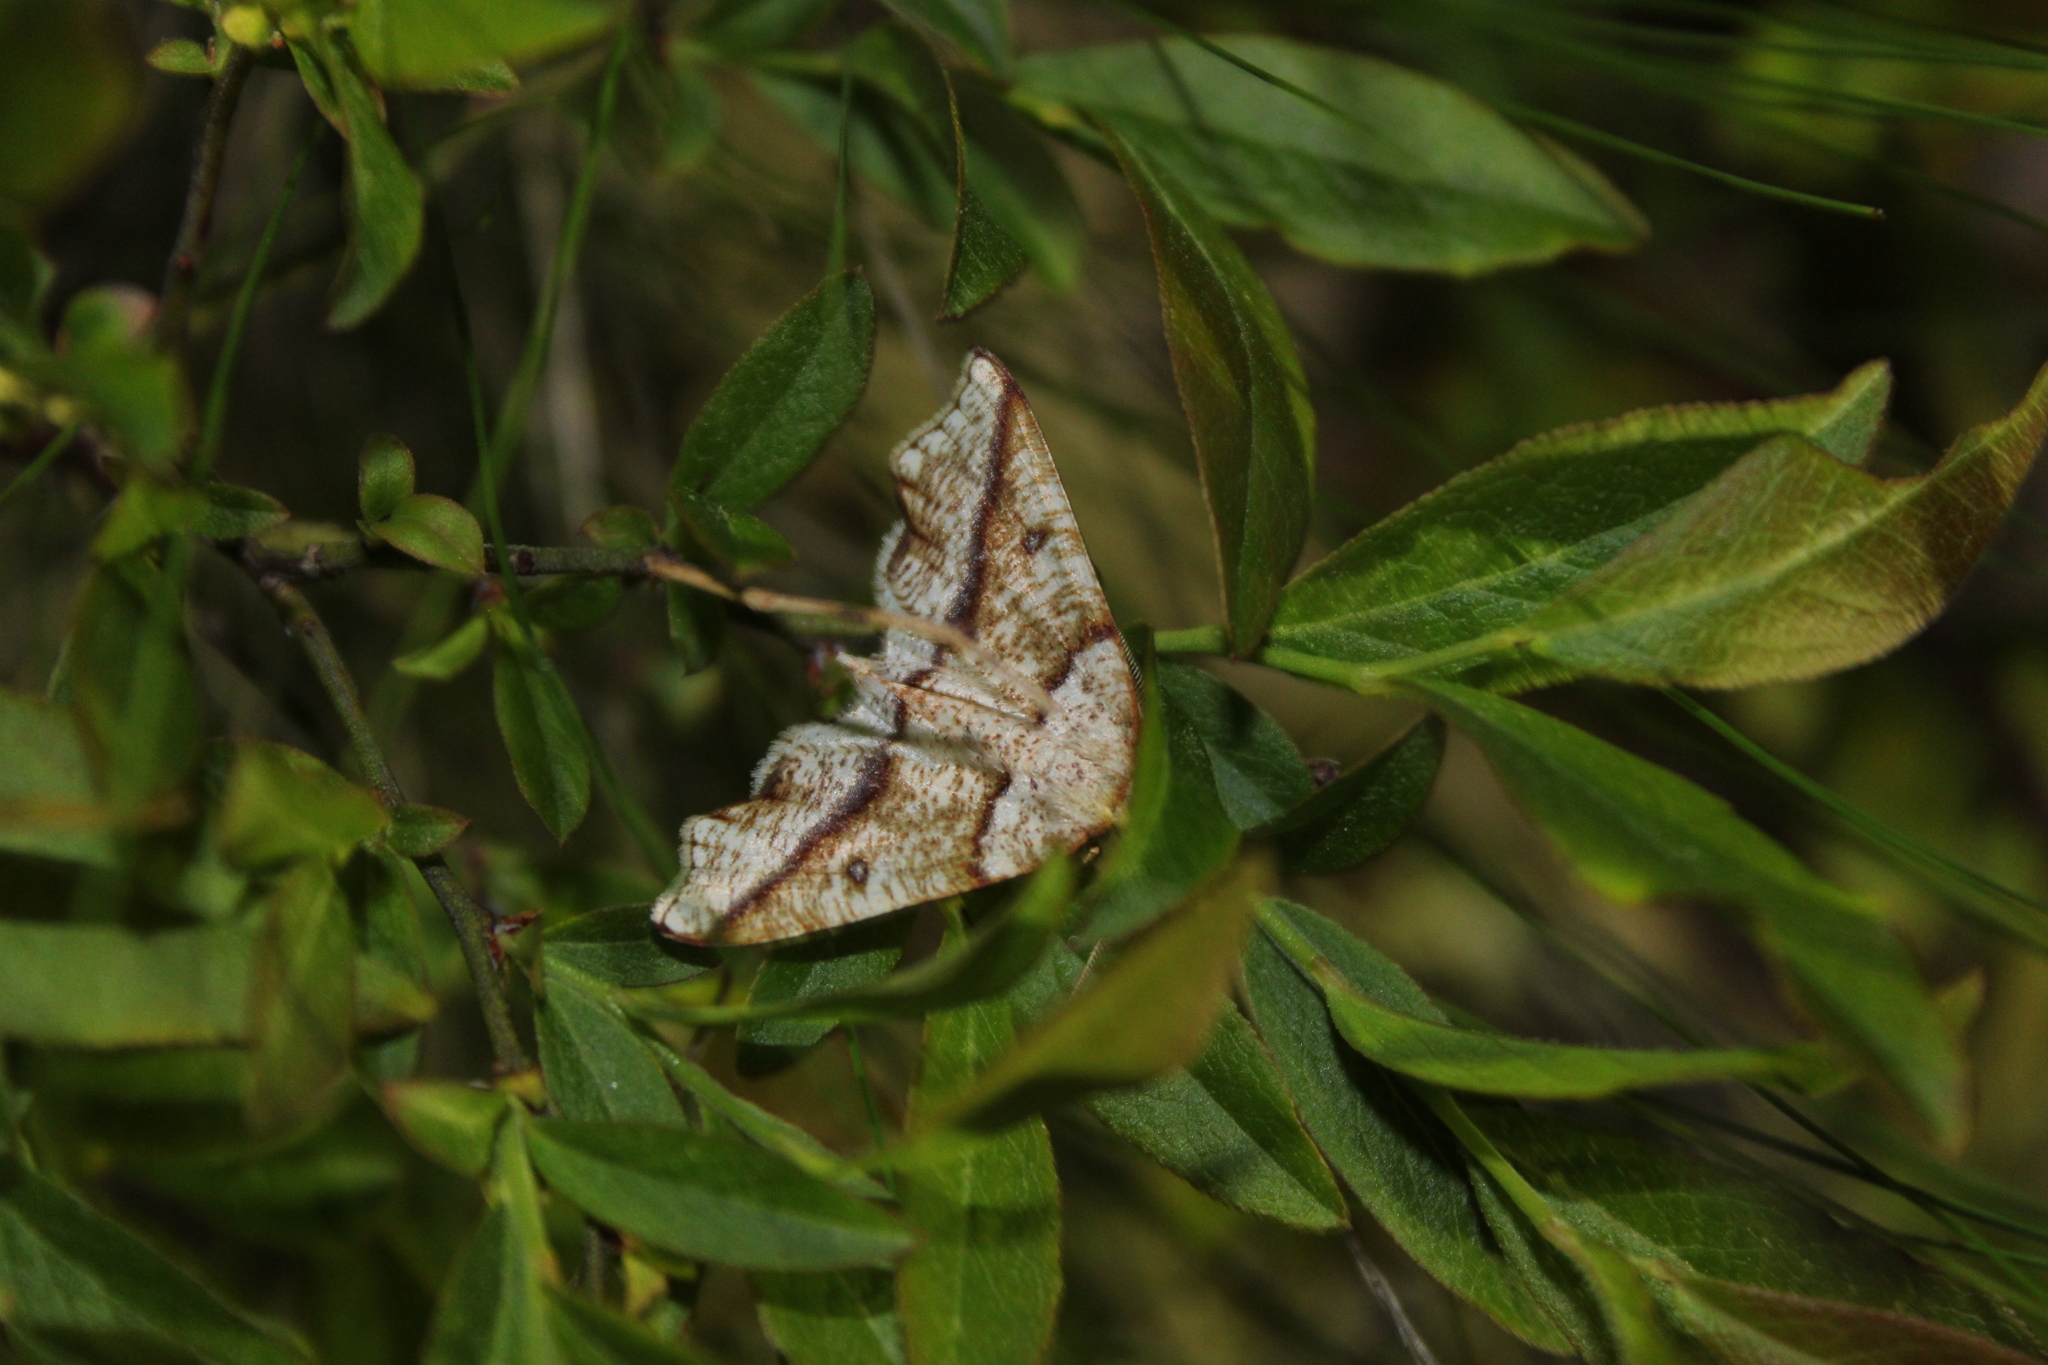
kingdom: Animalia
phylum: Arthropoda
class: Insecta
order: Lepidoptera
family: Geometridae
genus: Plagodis
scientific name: Plagodis alcoolaria
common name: Hollow-spotted plagodis
